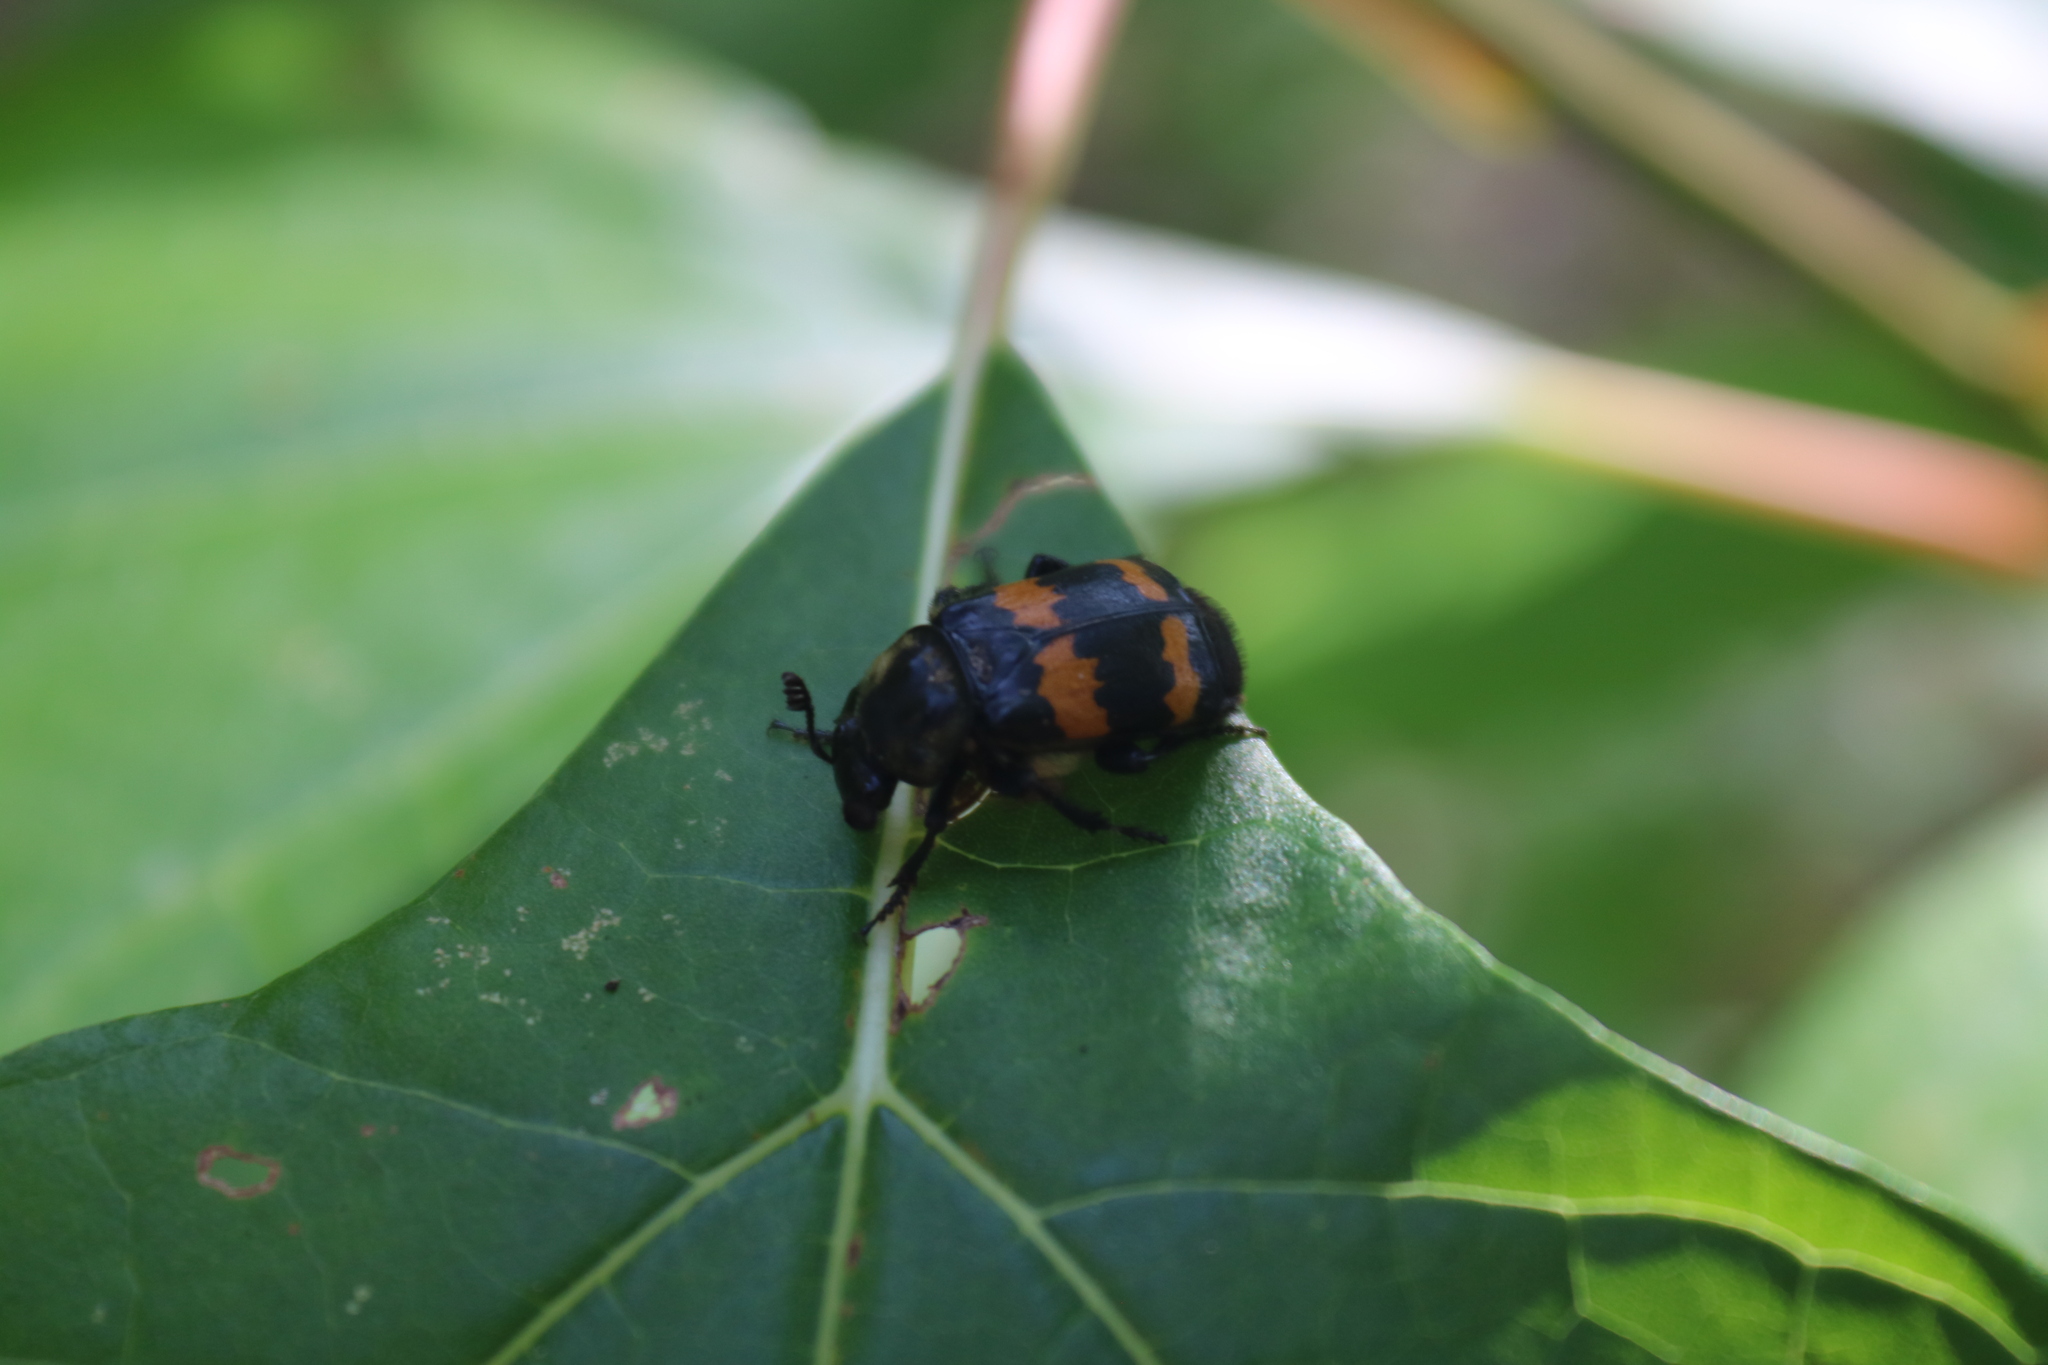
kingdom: Animalia
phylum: Arthropoda
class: Insecta
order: Coleoptera
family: Staphylinidae
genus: Nicrophorus
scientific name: Nicrophorus tomentosus
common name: Tomentose burying beetle
